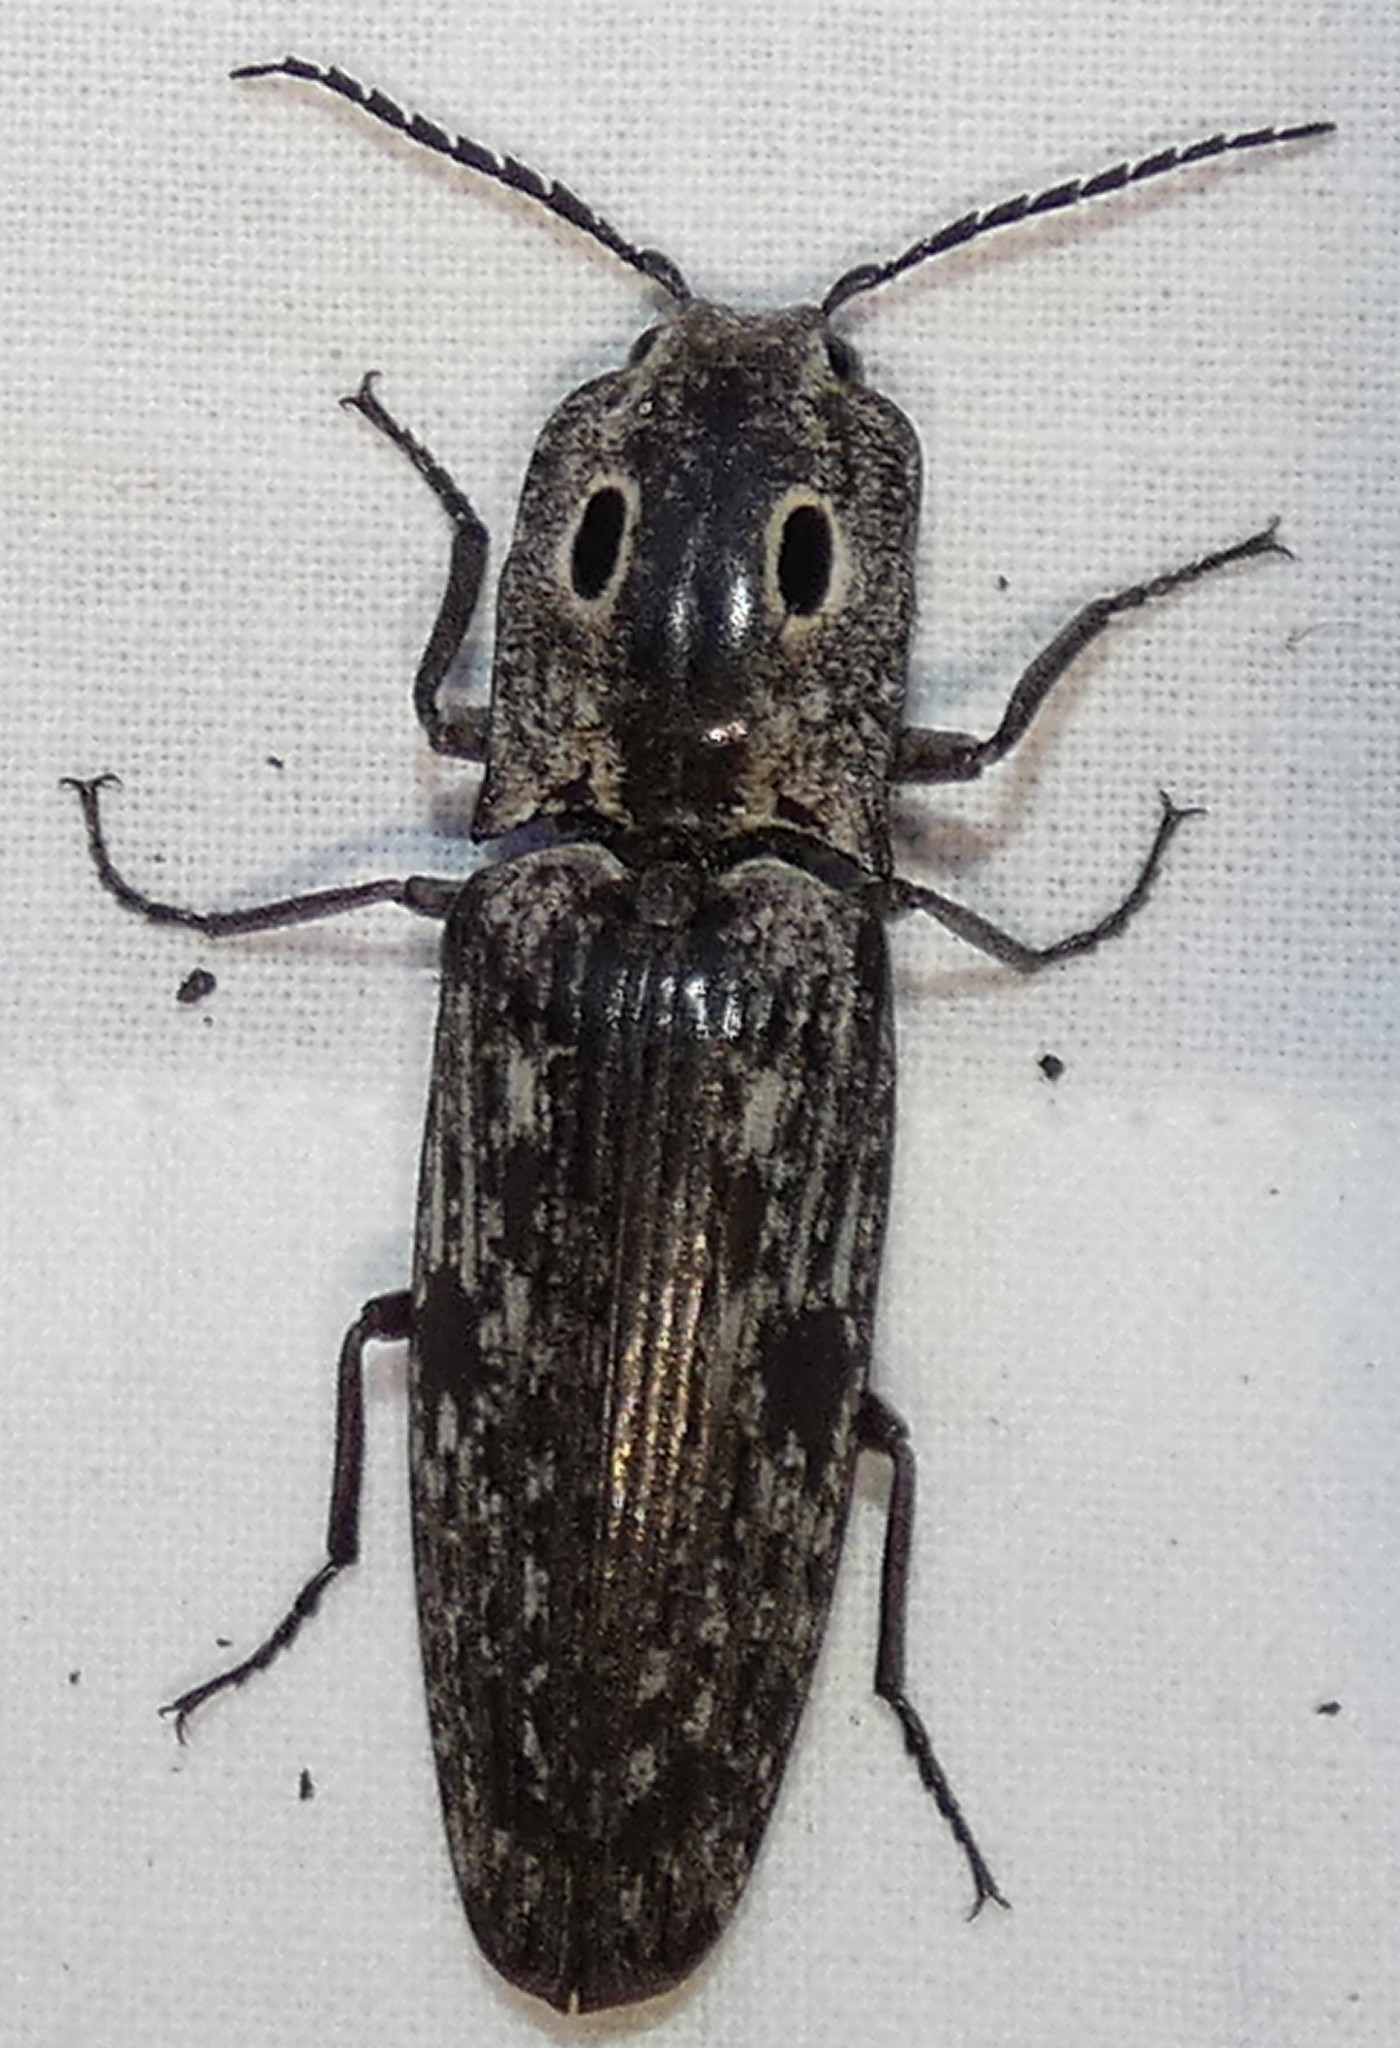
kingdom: Animalia
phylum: Arthropoda
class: Insecta
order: Coleoptera
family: Elateridae
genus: Alaus
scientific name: Alaus myops
